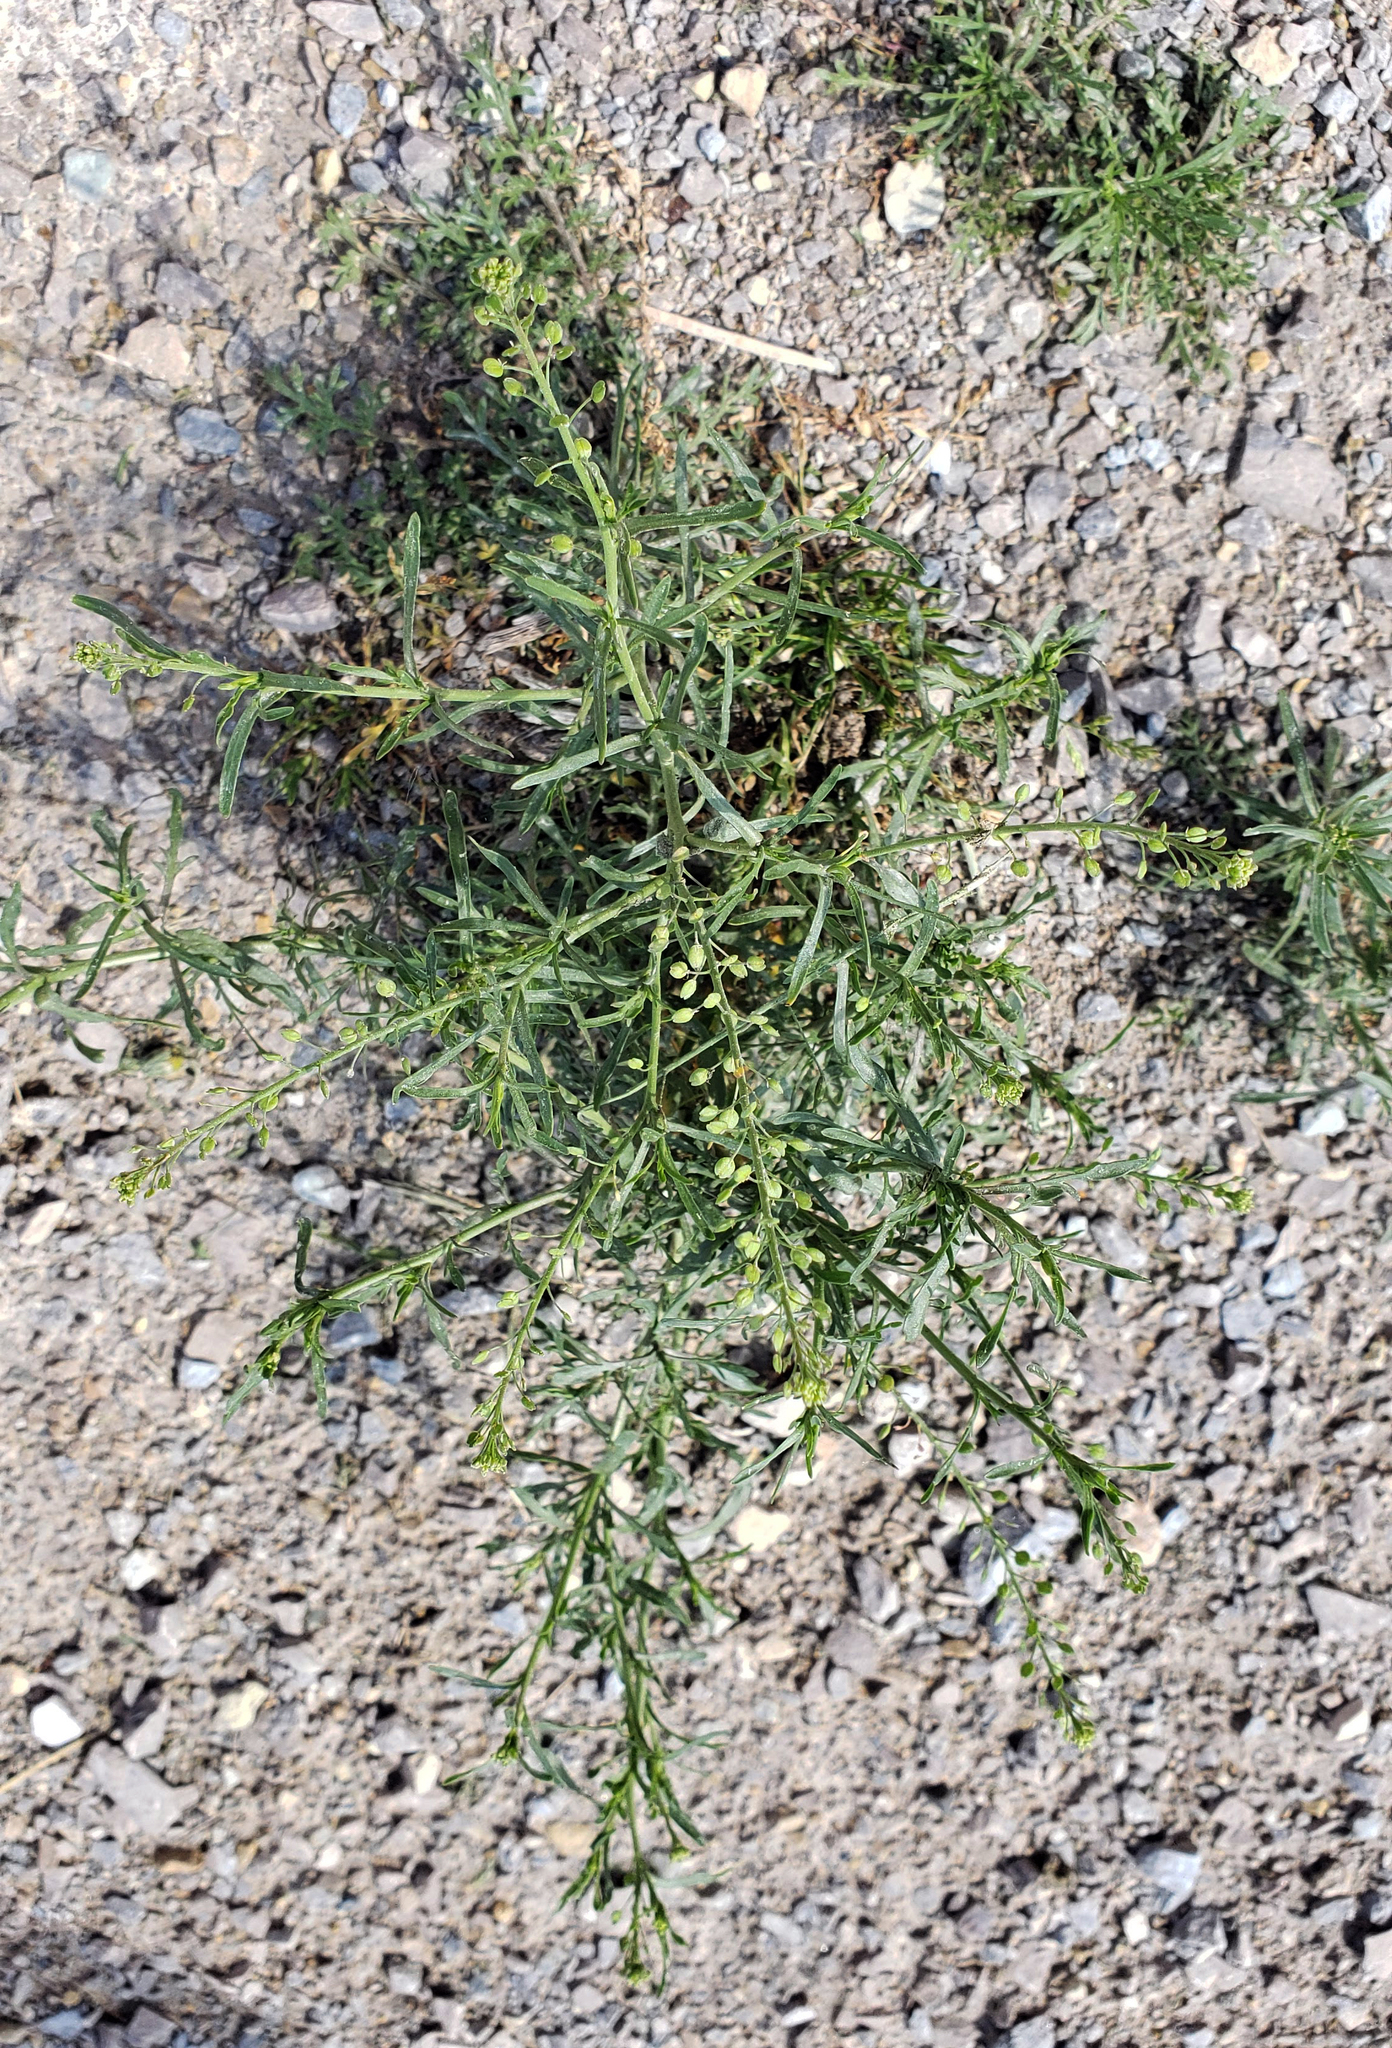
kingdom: Plantae
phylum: Tracheophyta
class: Magnoliopsida
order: Brassicales
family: Brassicaceae
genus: Lepidium
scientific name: Lepidium virginicum
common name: Least pepperwort
